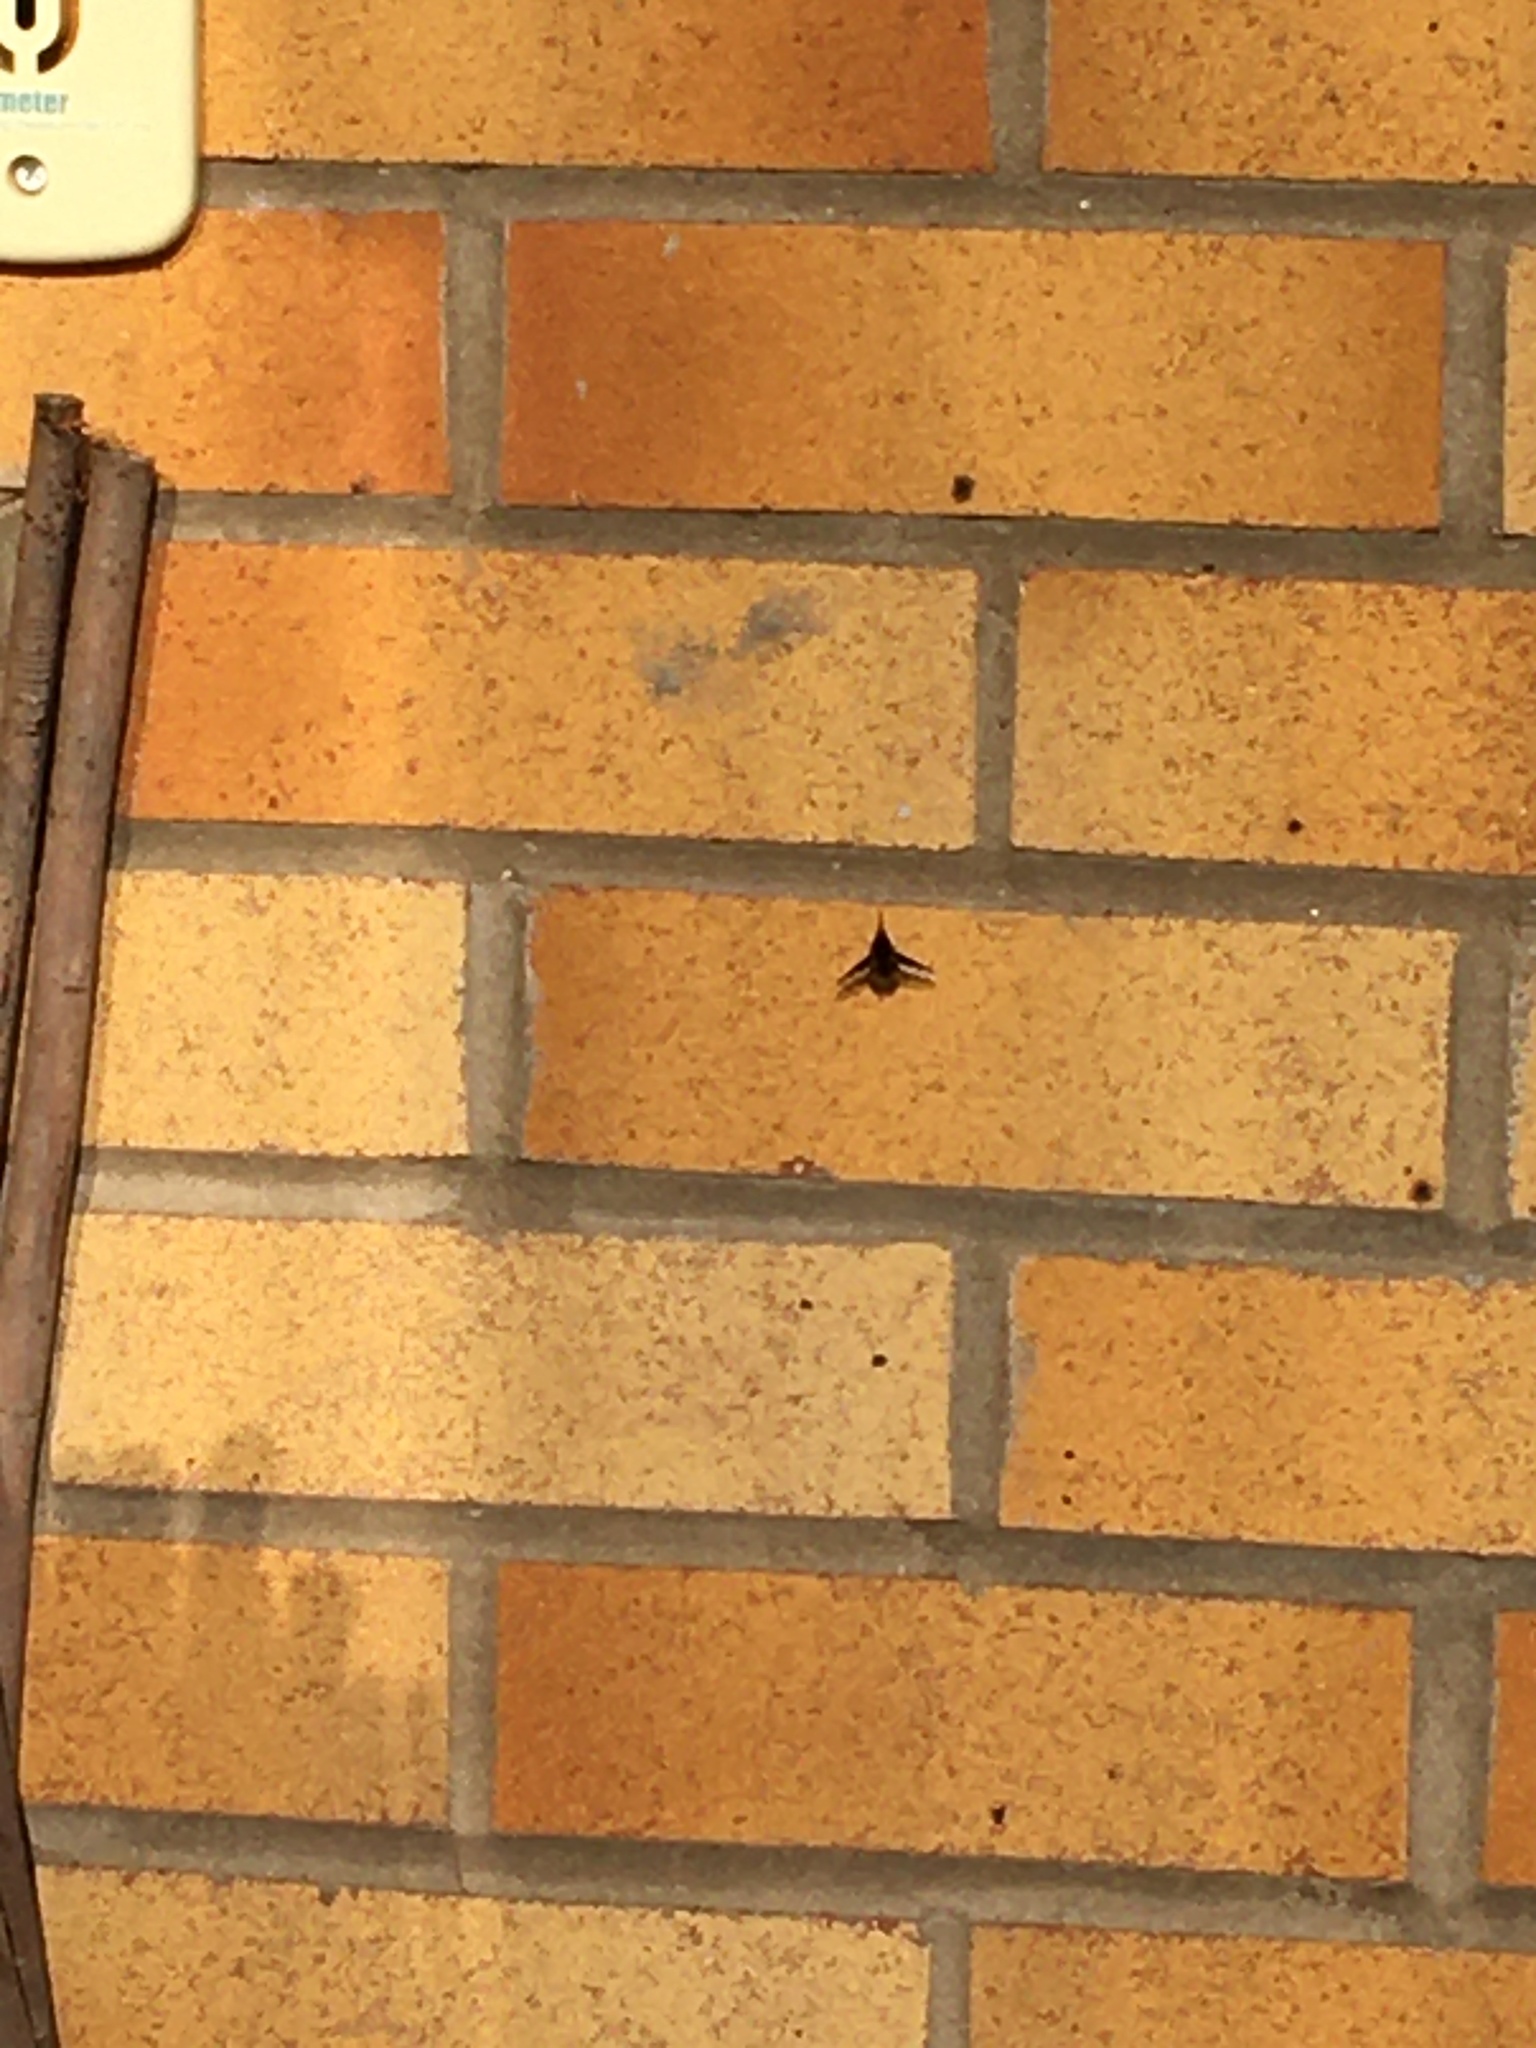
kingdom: Animalia
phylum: Arthropoda
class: Insecta
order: Diptera
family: Bombyliidae
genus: Bombylius
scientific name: Bombylius major
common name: Bee fly
